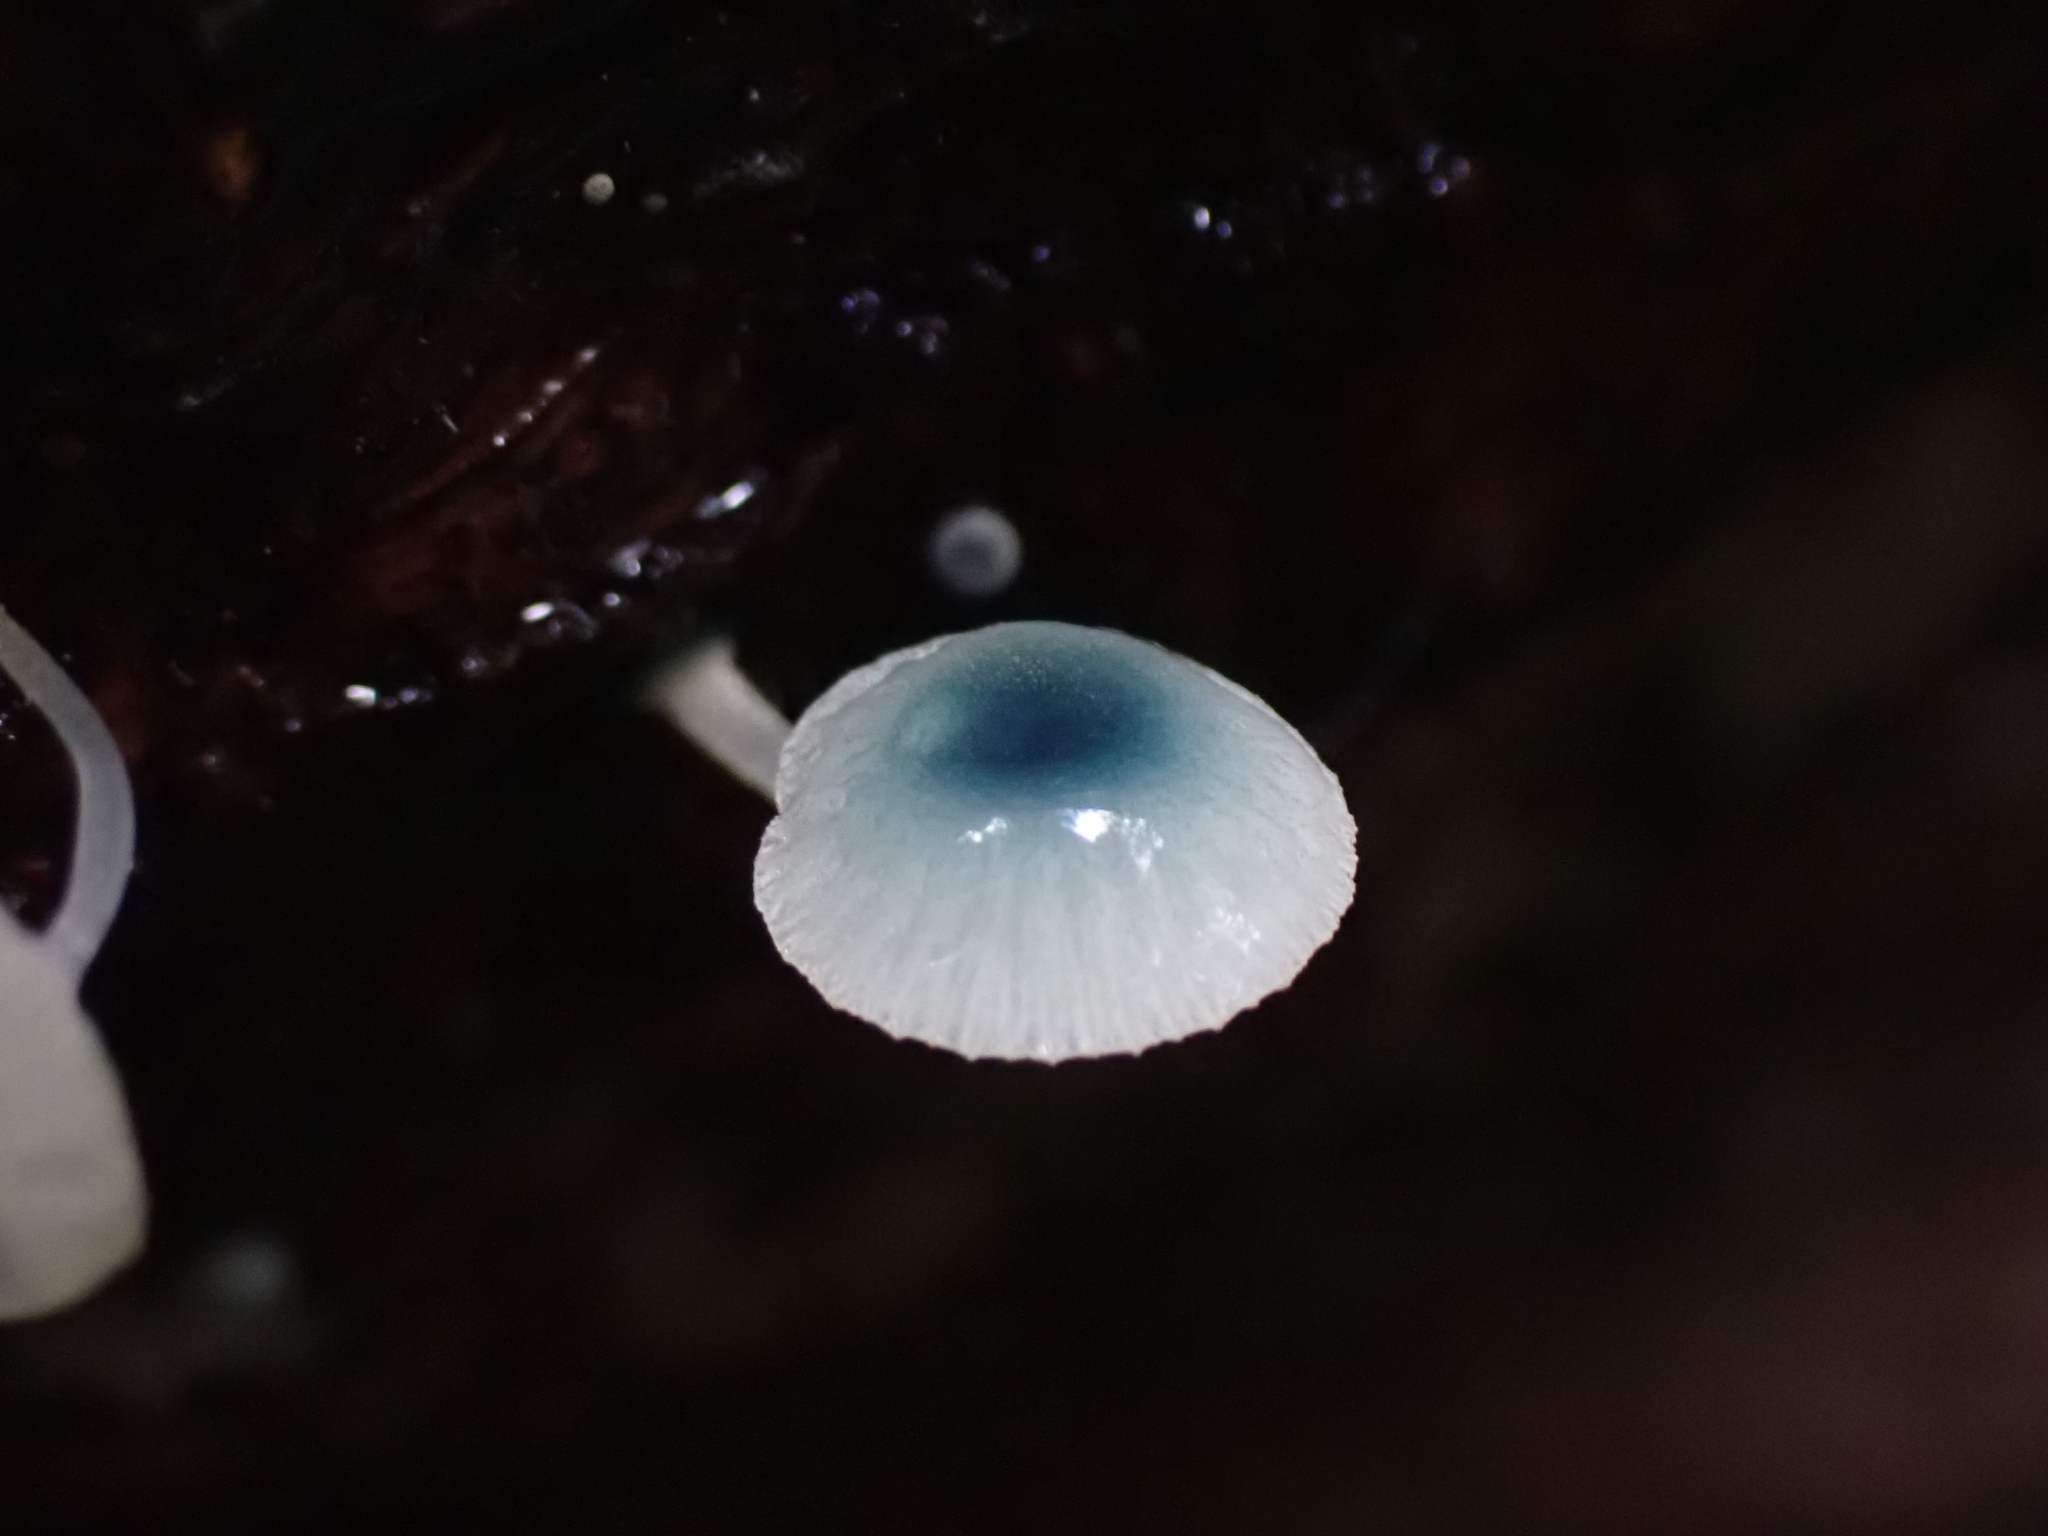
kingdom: Fungi
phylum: Basidiomycota
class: Agaricomycetes
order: Agaricales
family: Mycenaceae
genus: Mycena
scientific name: Mycena interrupta
